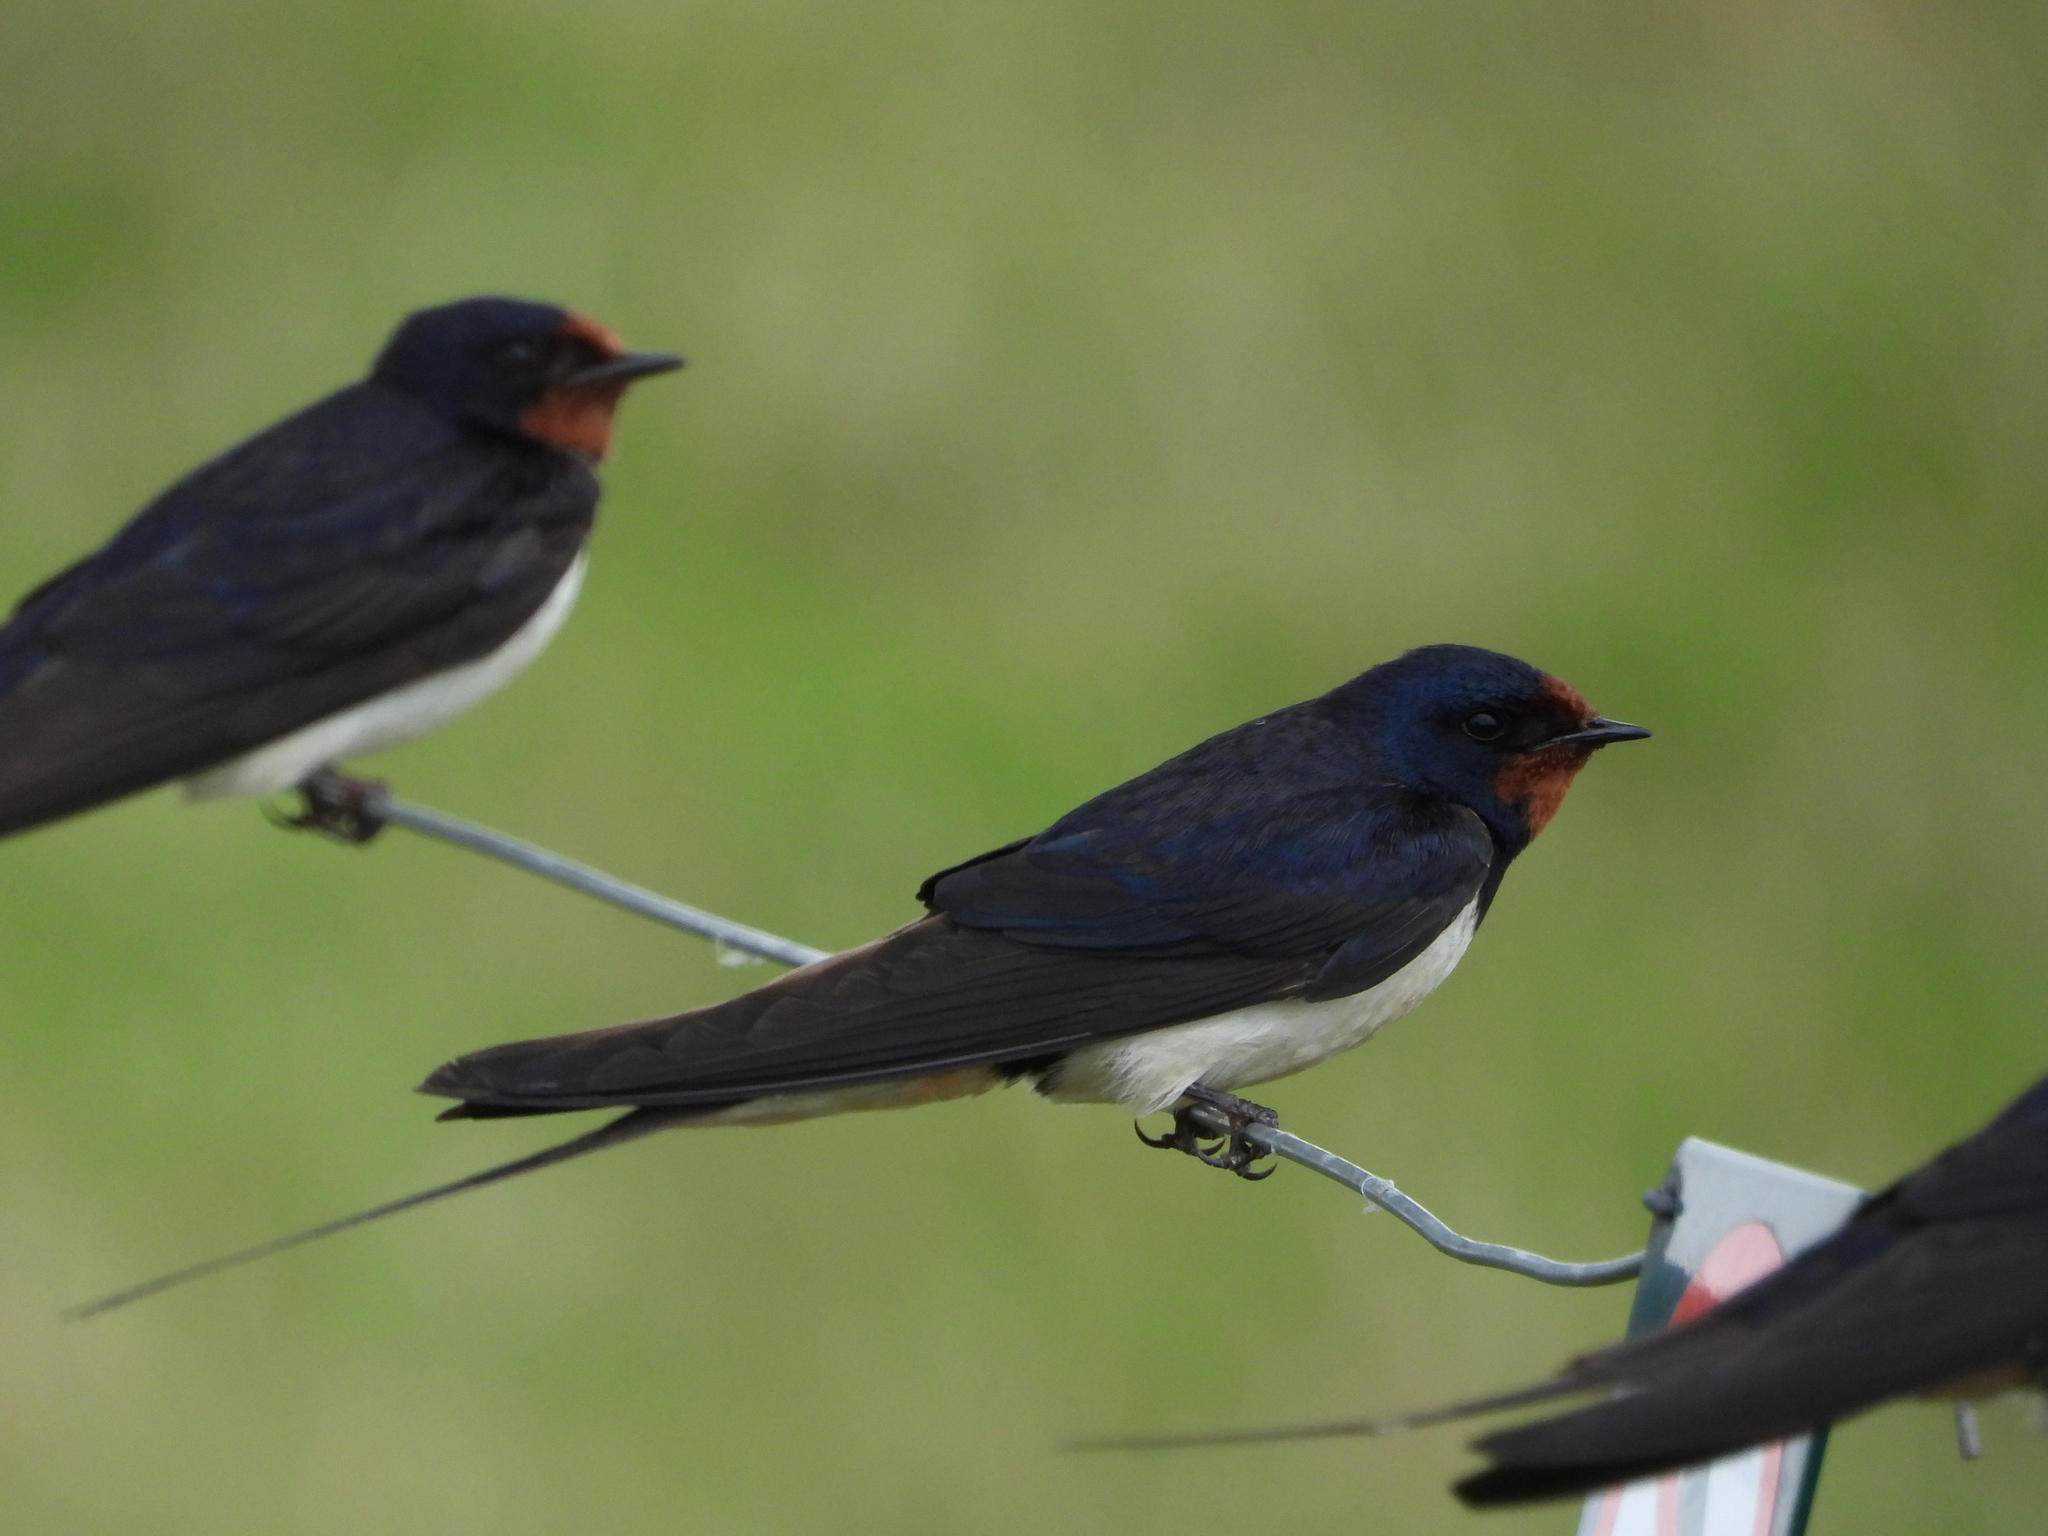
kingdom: Animalia
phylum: Chordata
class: Aves
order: Passeriformes
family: Hirundinidae
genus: Hirundo
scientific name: Hirundo rustica
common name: Barn swallow
